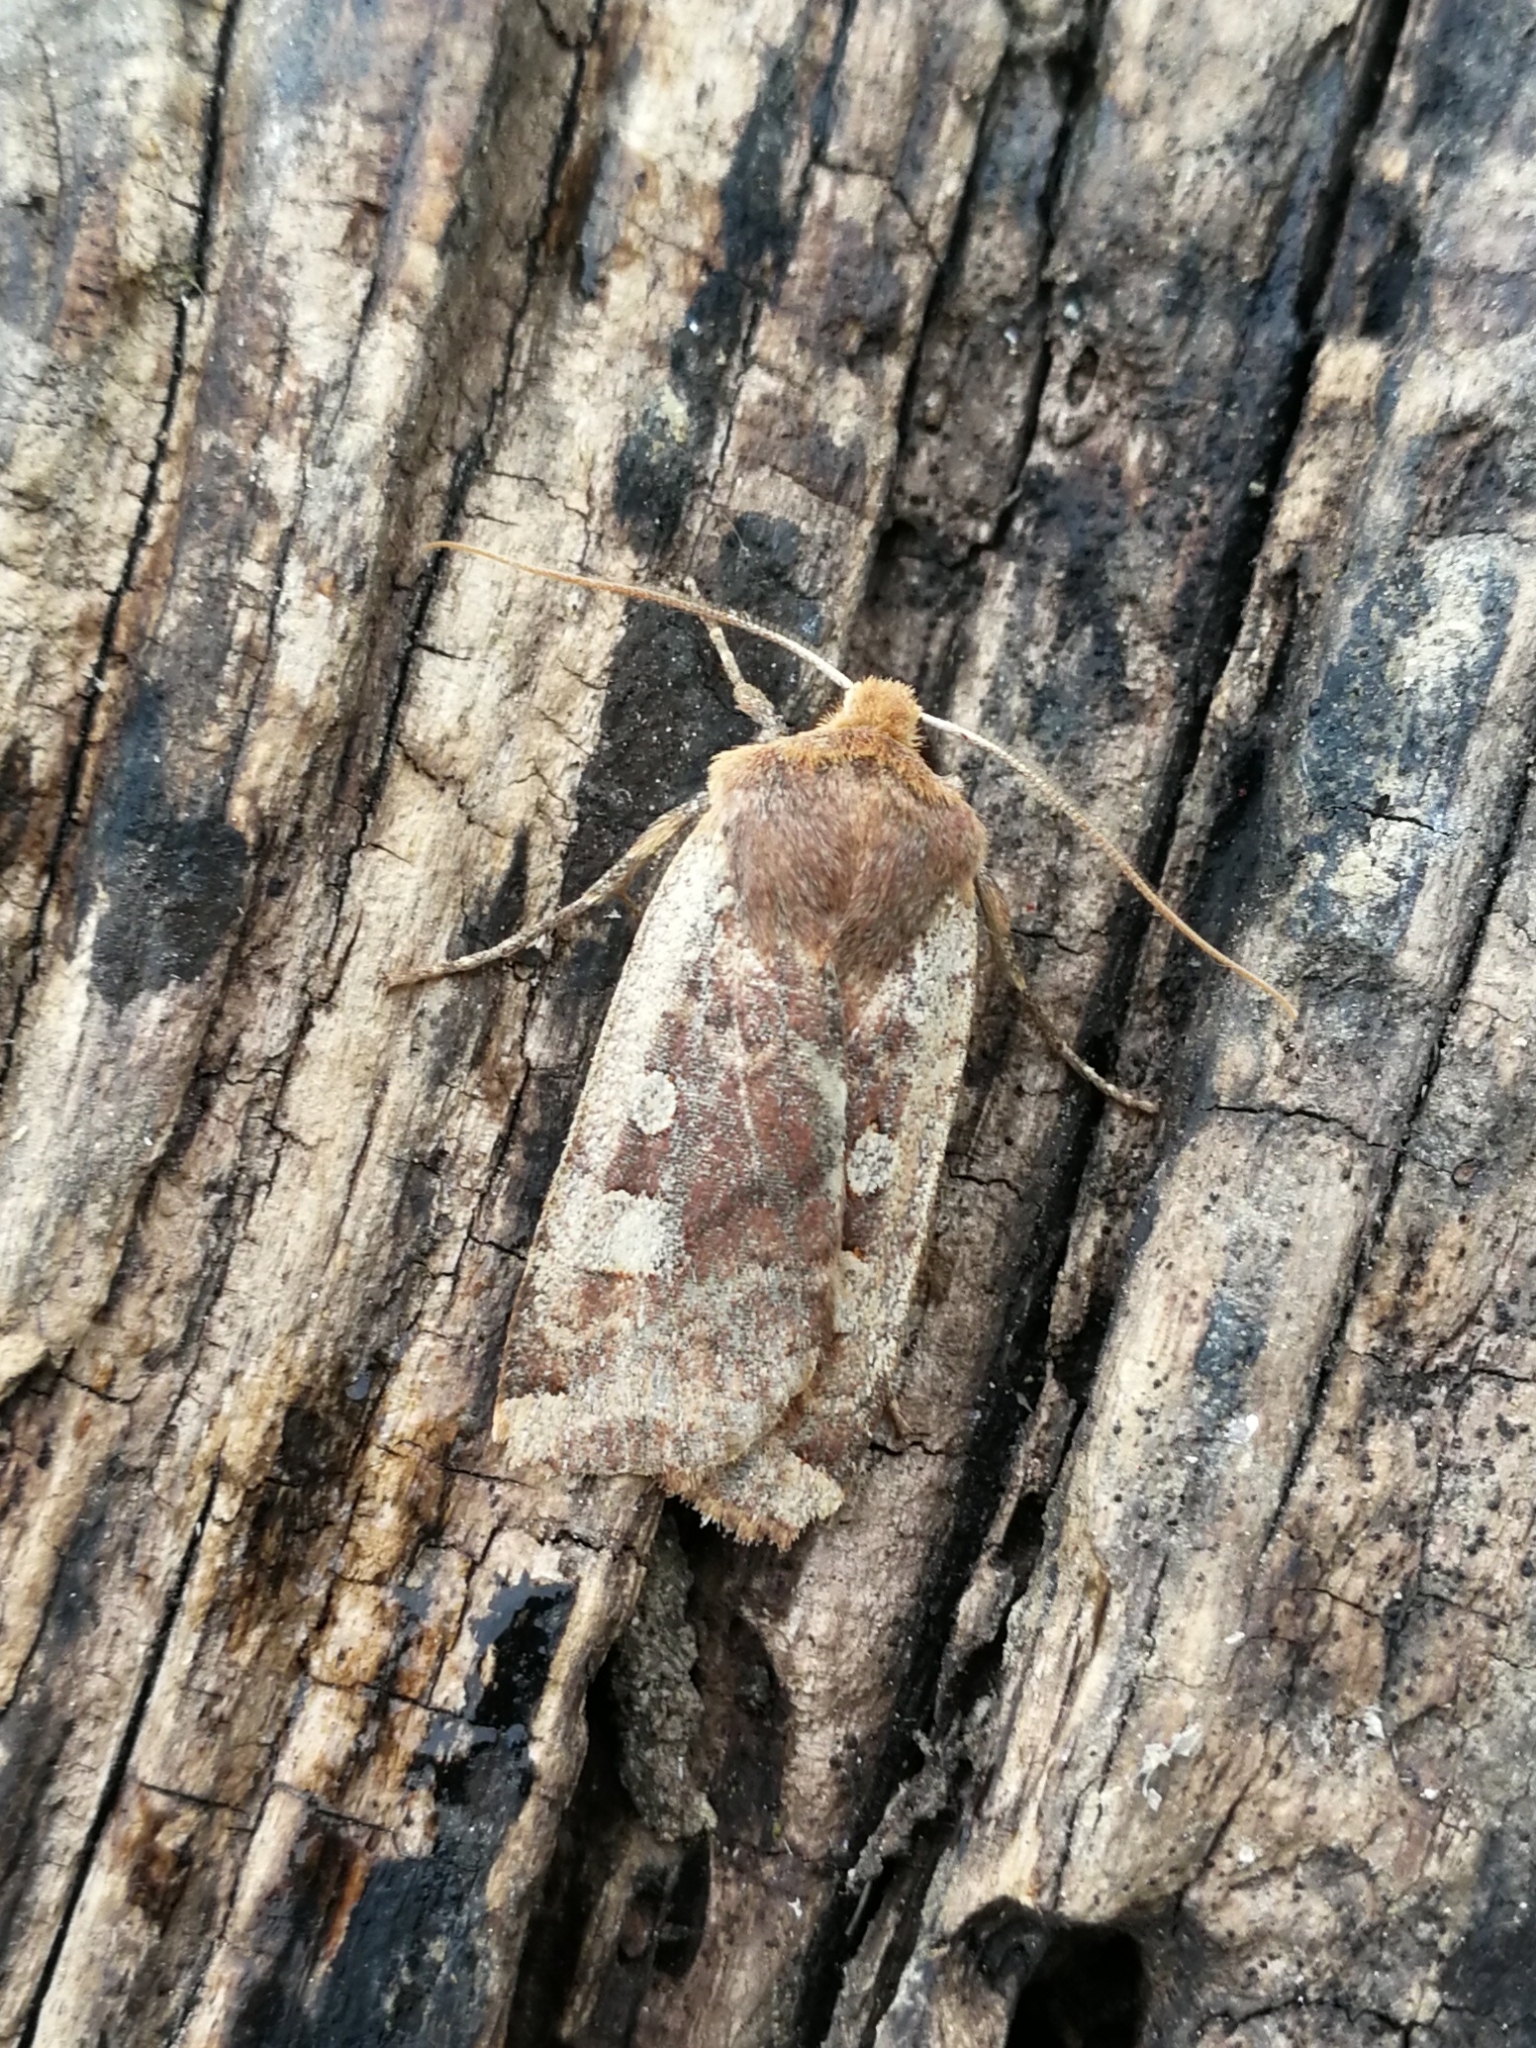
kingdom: Animalia
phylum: Arthropoda
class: Insecta
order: Lepidoptera
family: Noctuidae
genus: Conistra
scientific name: Conistra erythrocephala
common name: Red-headed chestnut
